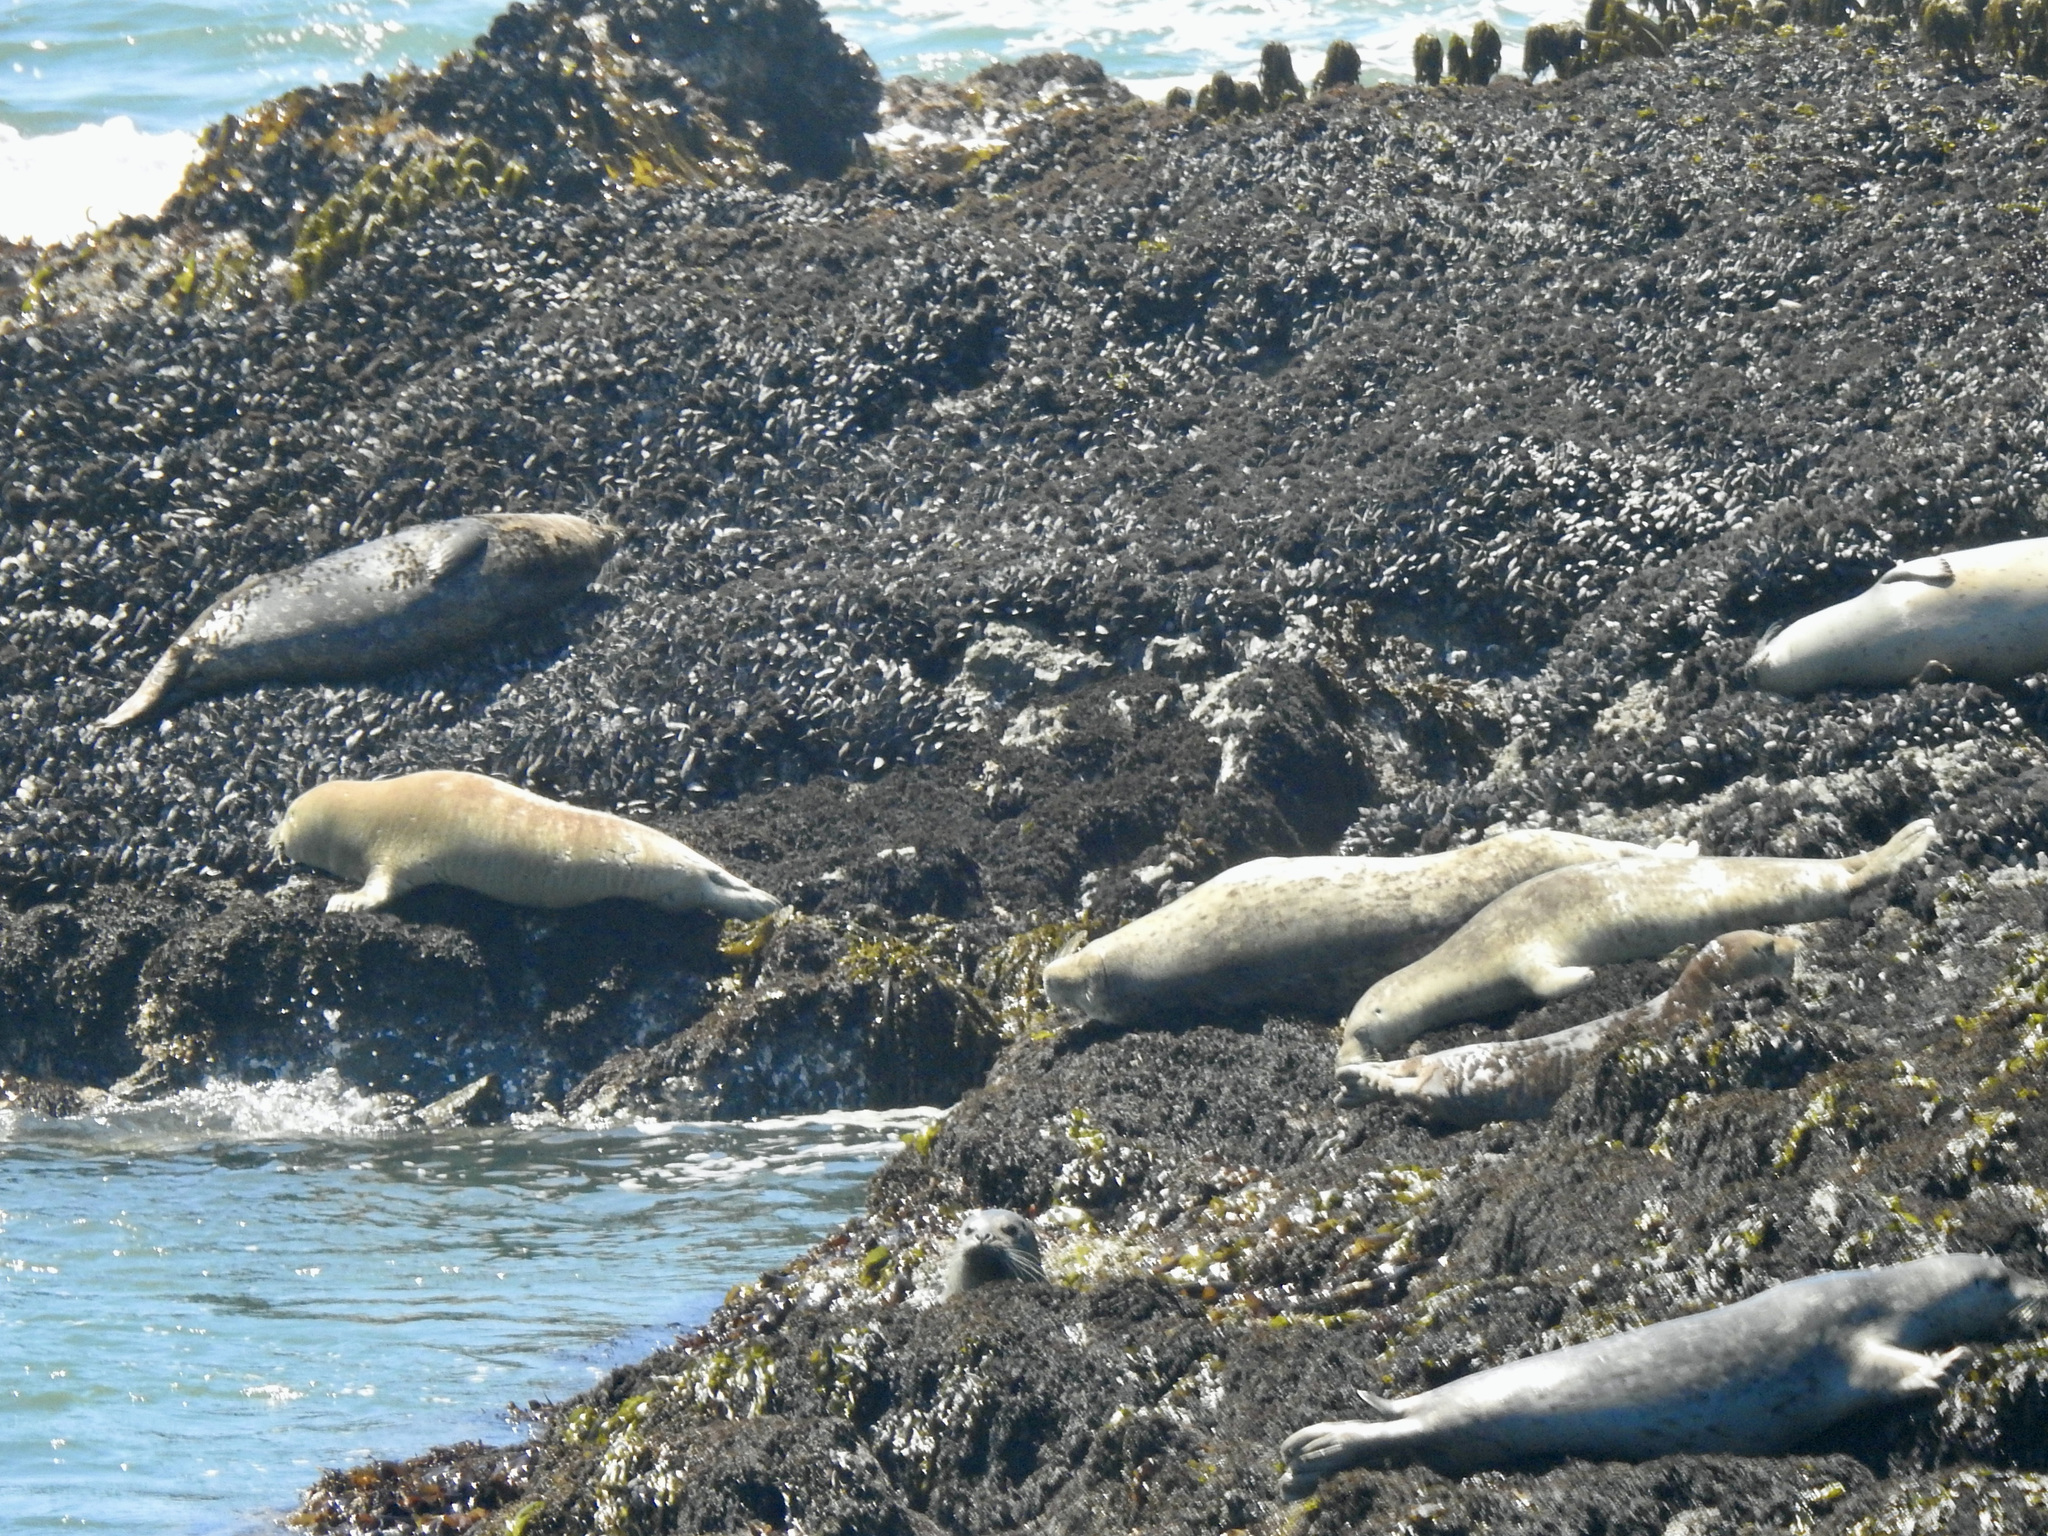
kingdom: Animalia
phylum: Chordata
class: Mammalia
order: Carnivora
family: Phocidae
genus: Phoca
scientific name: Phoca vitulina
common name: Harbor seal
